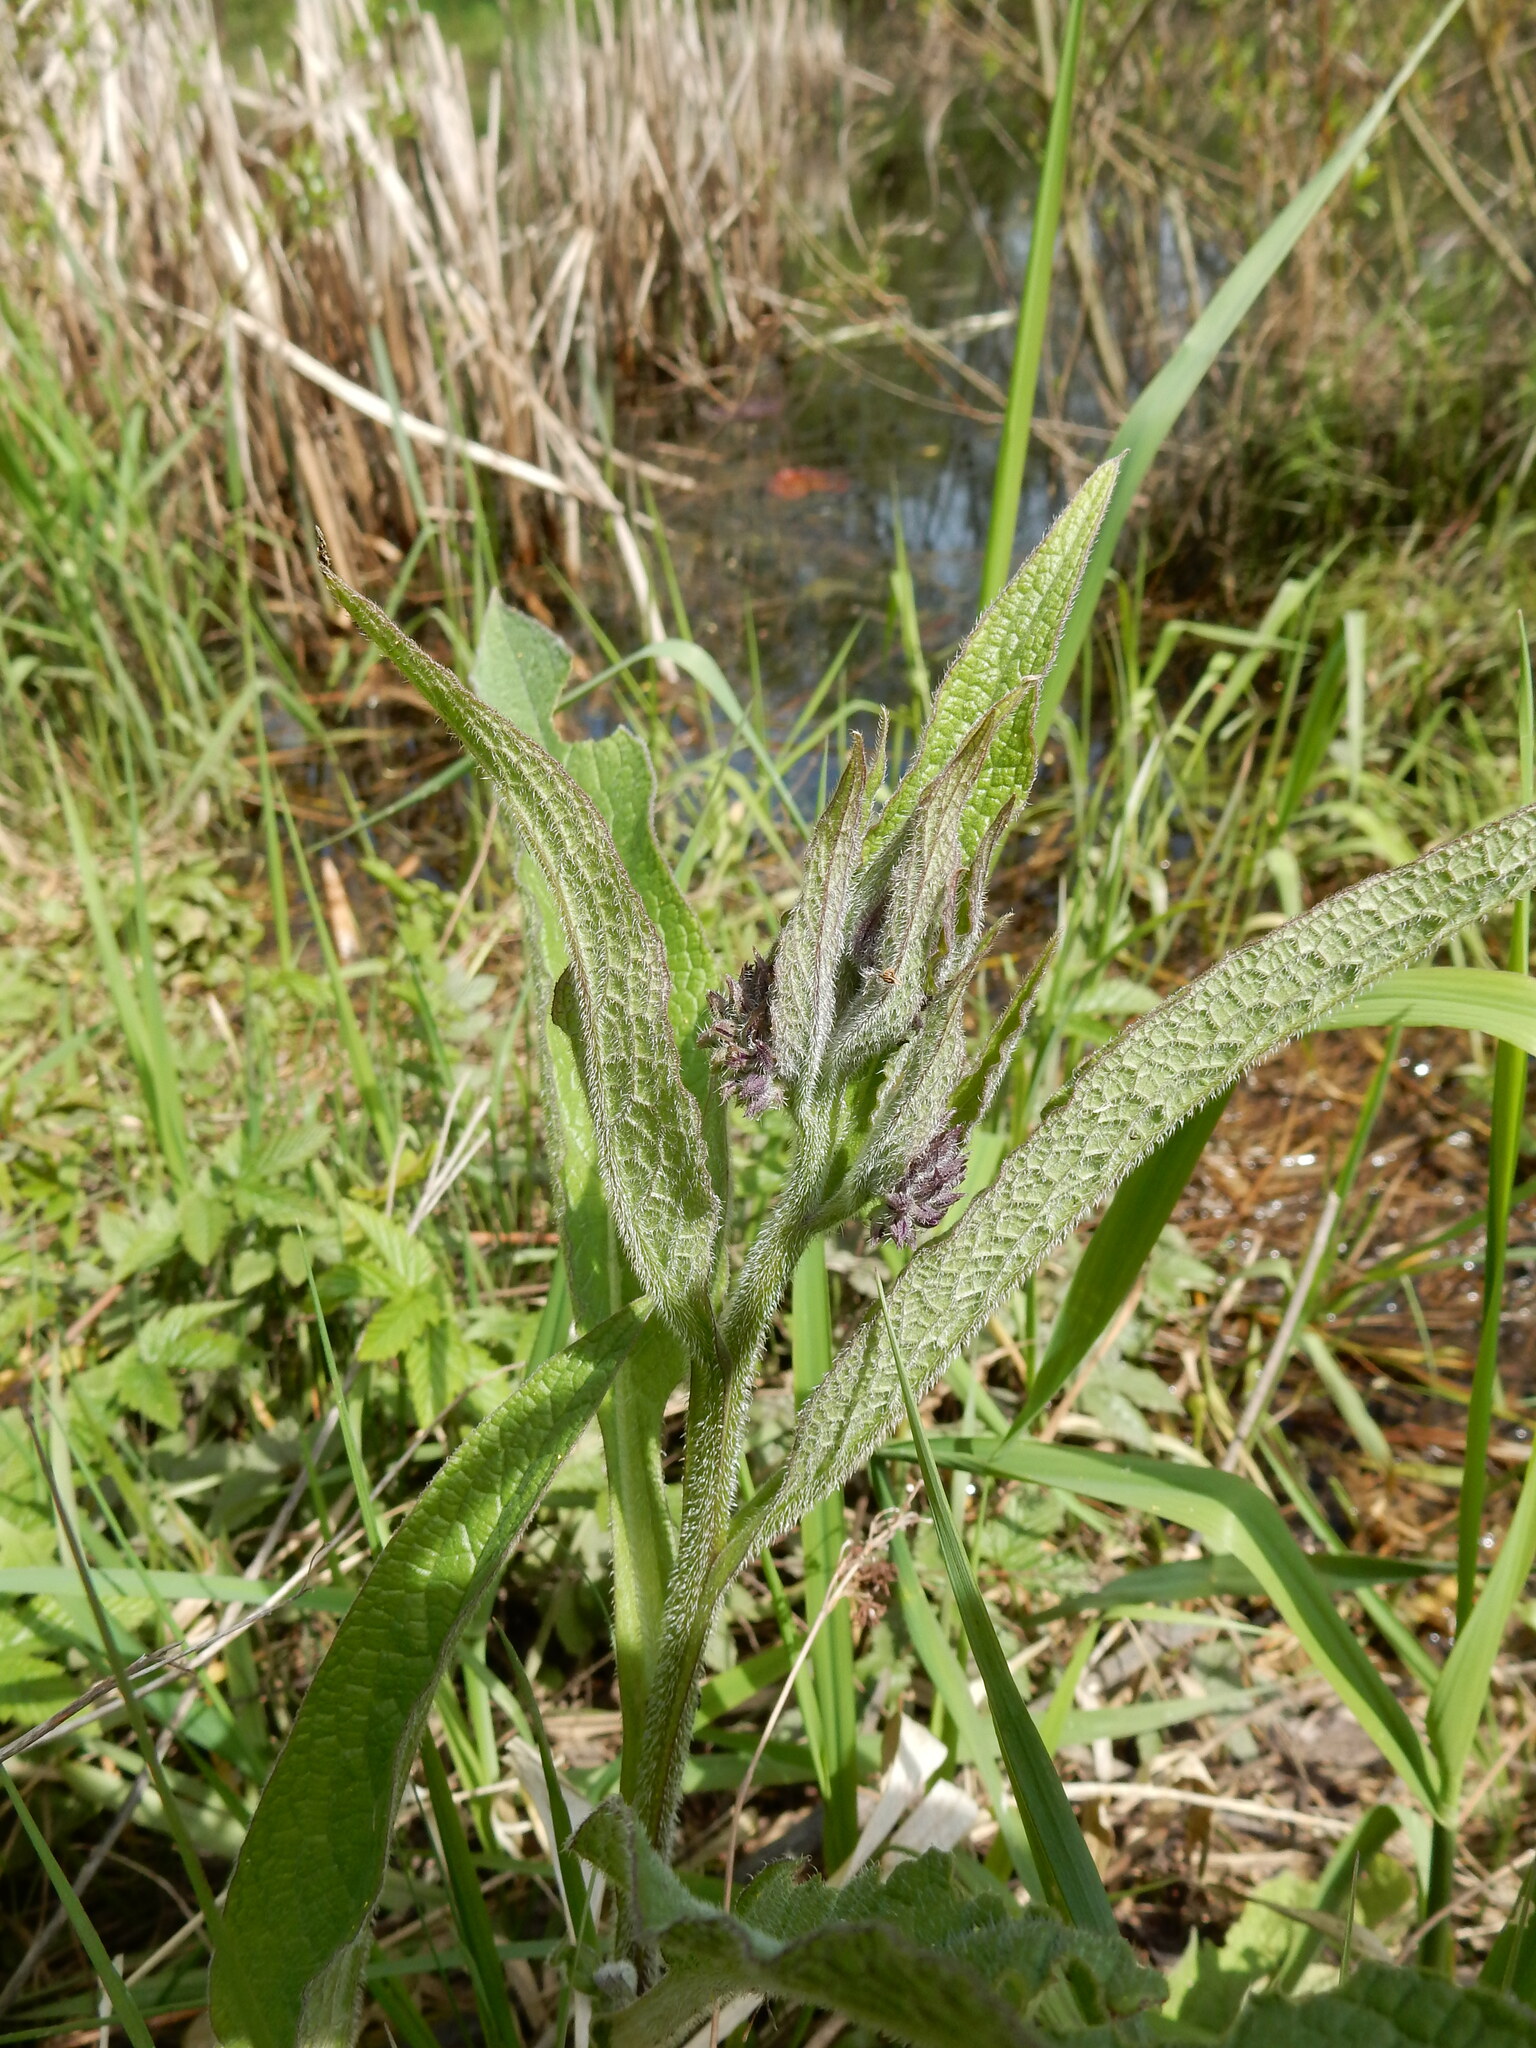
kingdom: Plantae
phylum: Tracheophyta
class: Magnoliopsida
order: Boraginales
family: Boraginaceae
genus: Symphytum
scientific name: Symphytum officinale
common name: Common comfrey
